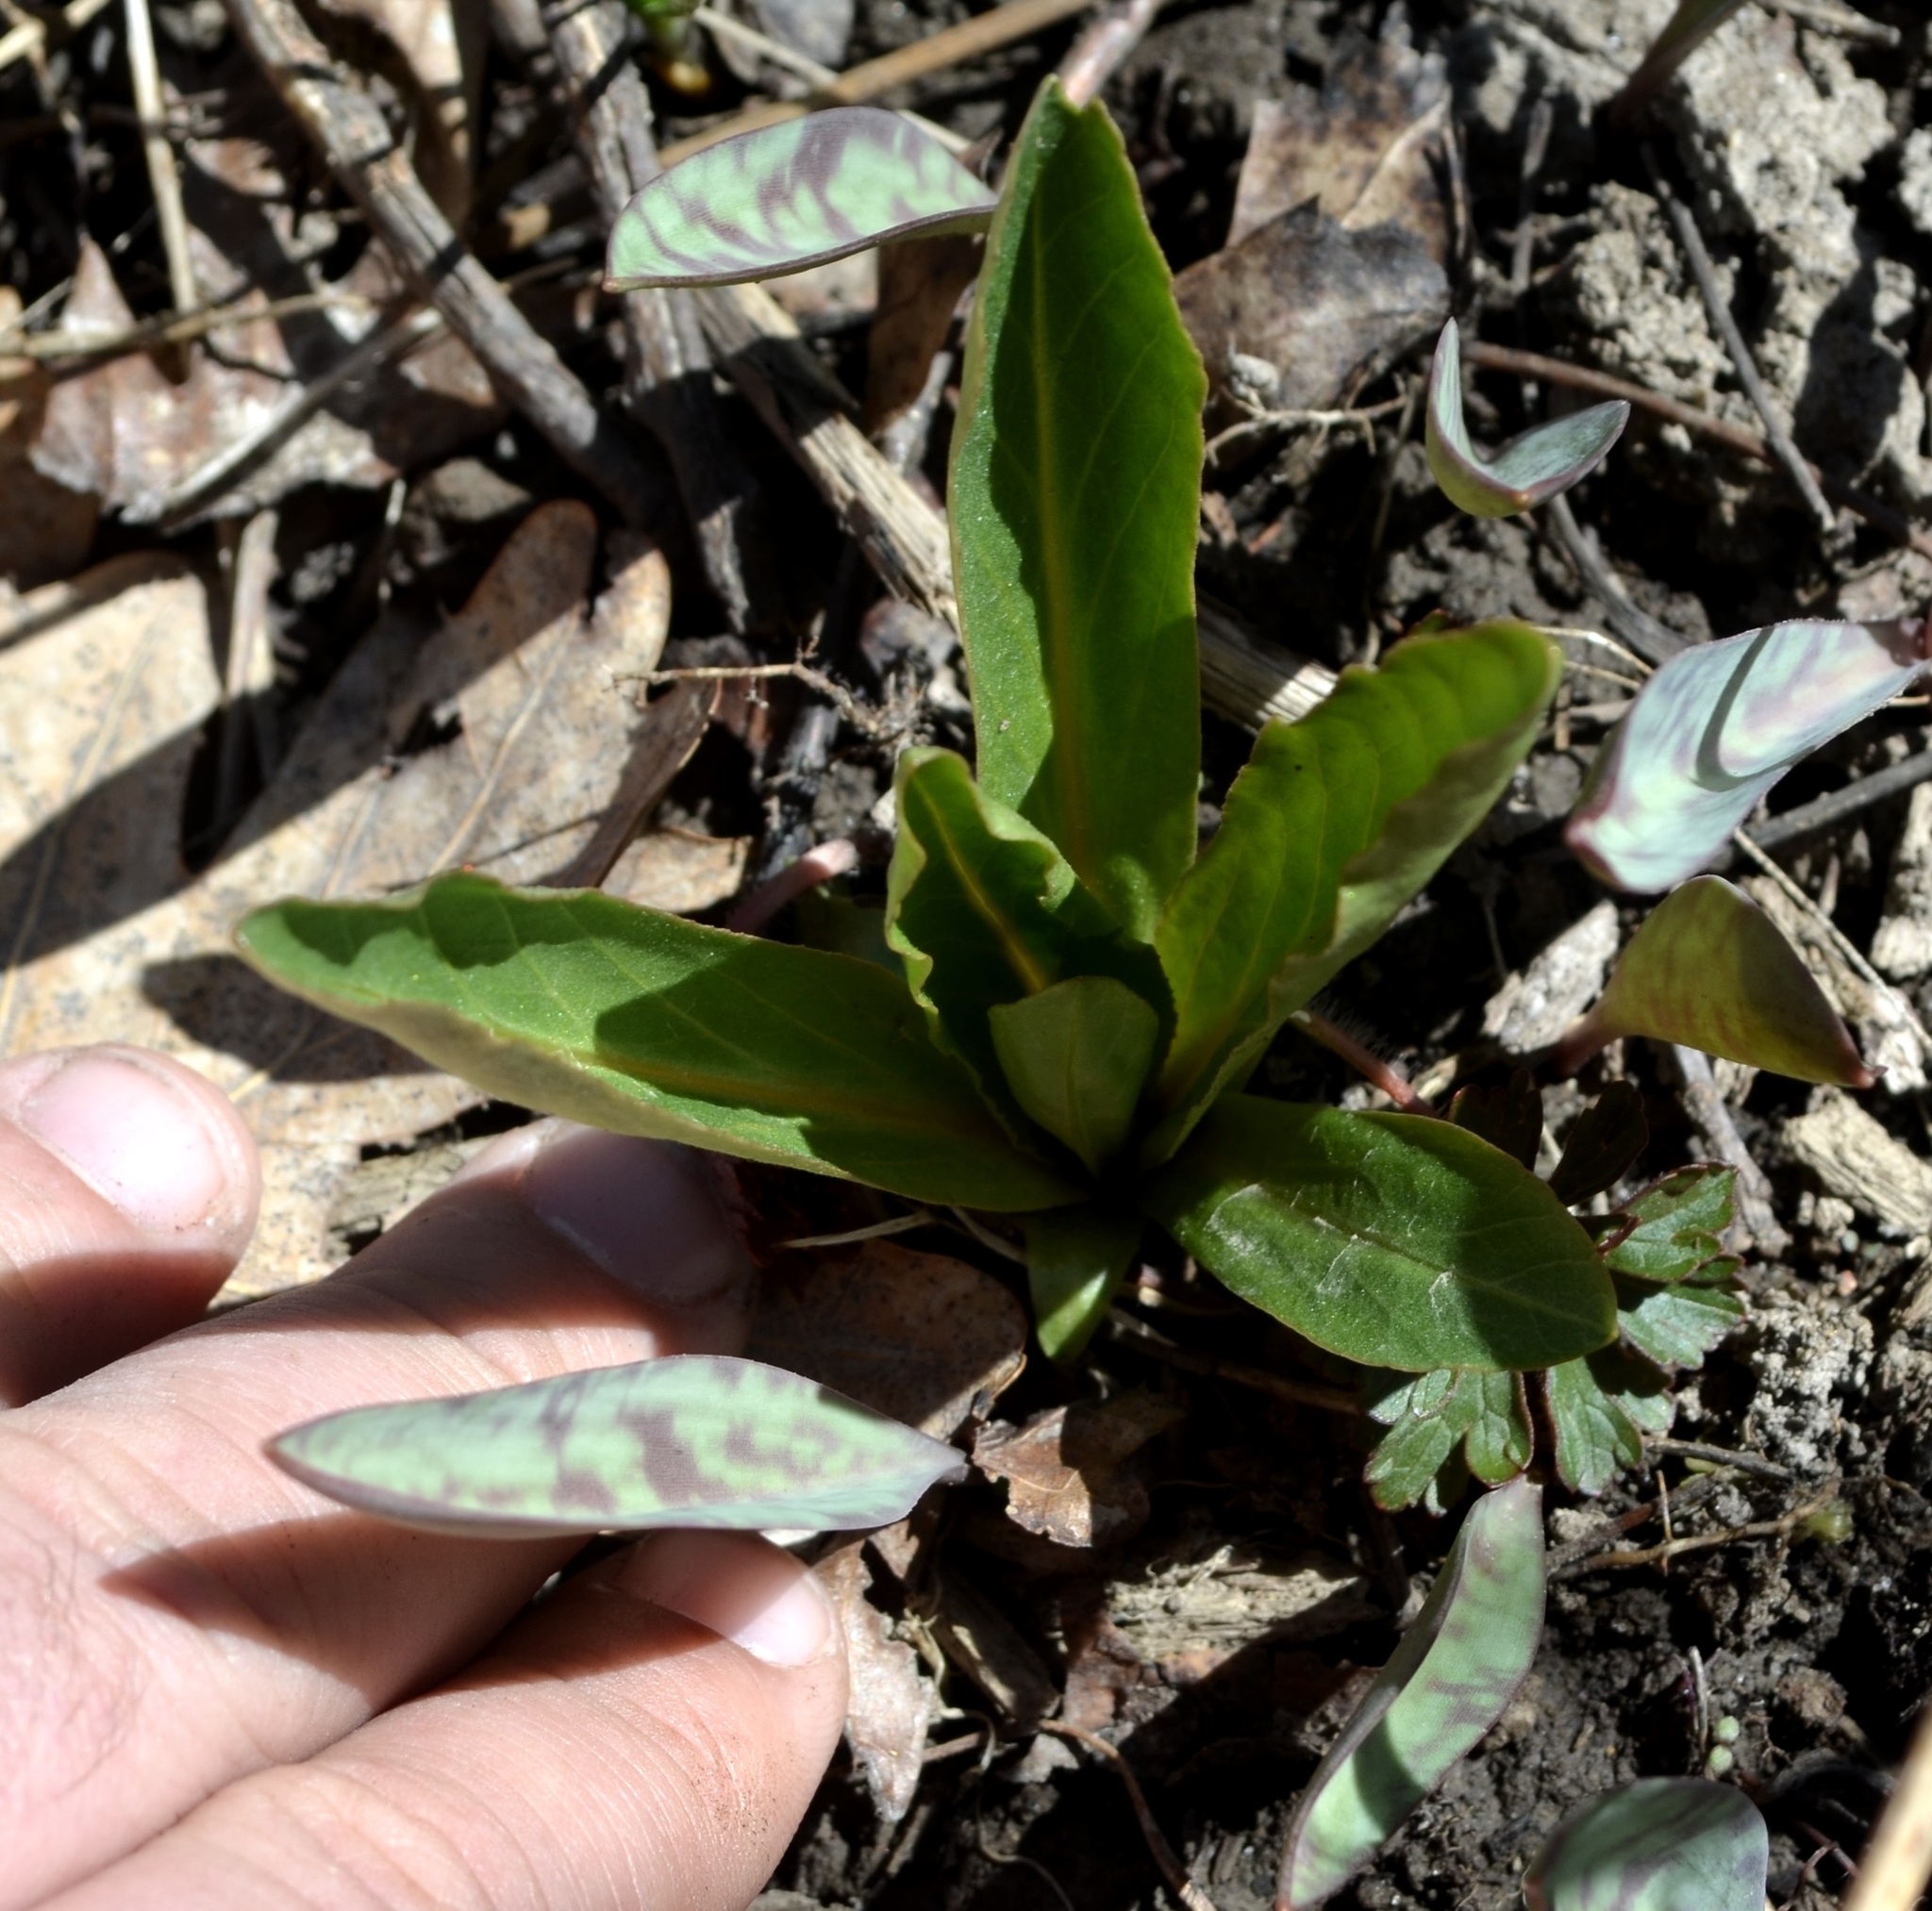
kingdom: Plantae
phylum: Tracheophyta
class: Magnoliopsida
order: Ericales
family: Primulaceae
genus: Dodecatheon
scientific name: Dodecatheon meadia
